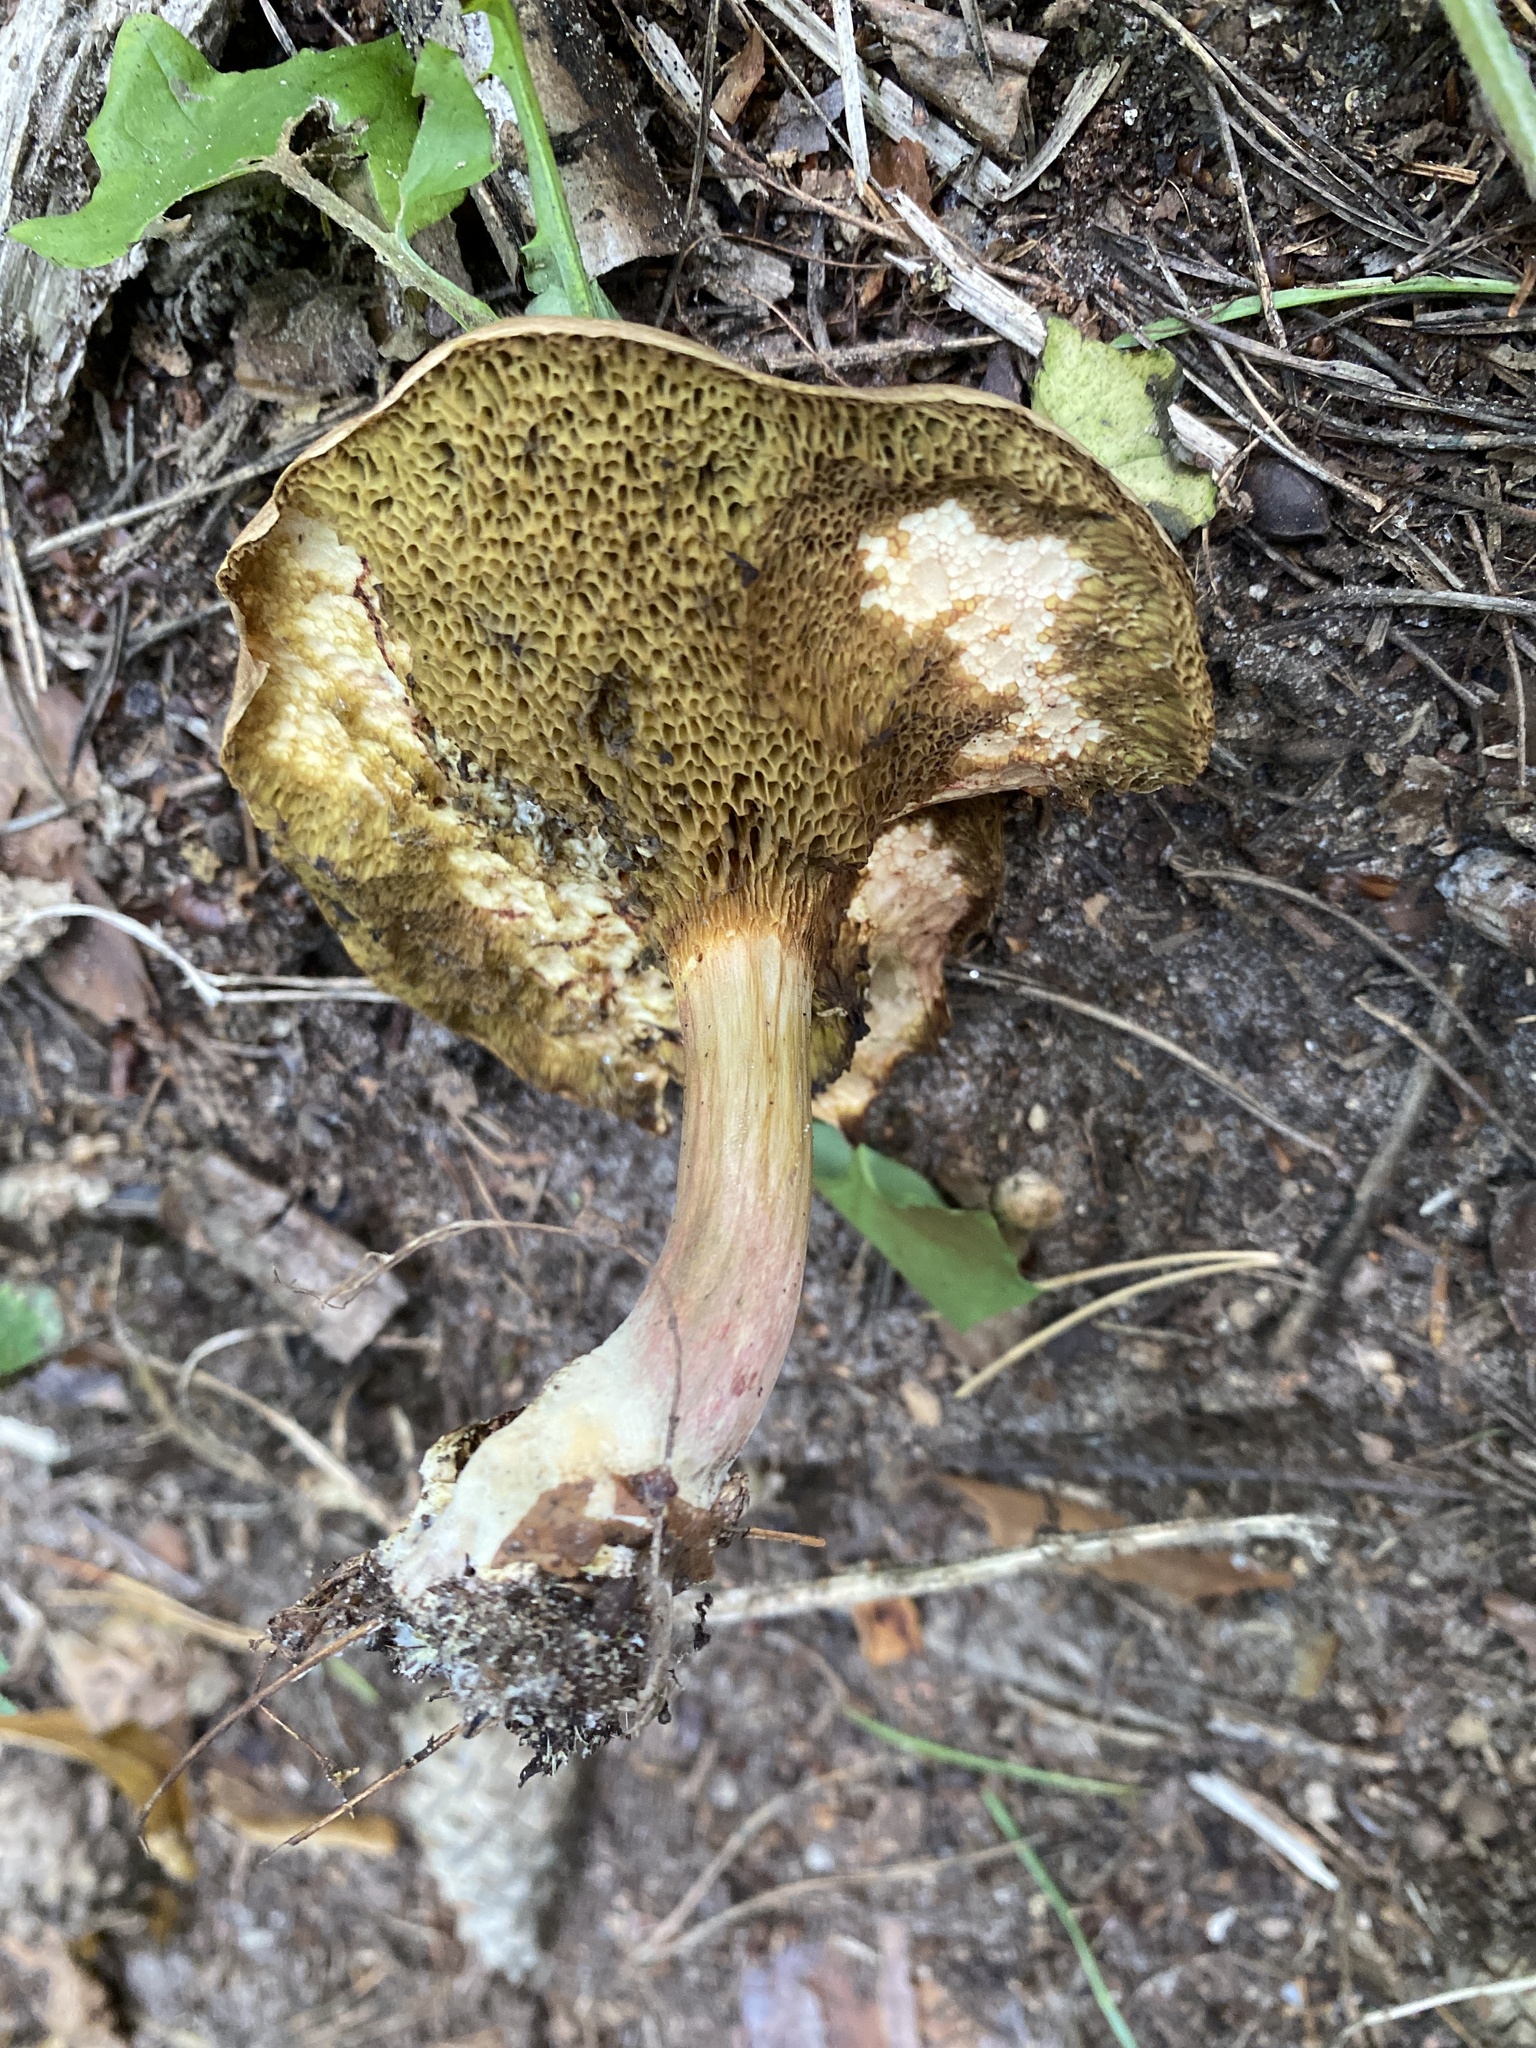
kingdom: Fungi
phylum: Basidiomycota
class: Agaricomycetes
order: Boletales
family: Boletaceae
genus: Xerocomellus
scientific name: Xerocomellus chrysenteron
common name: Red-cracking bolete
